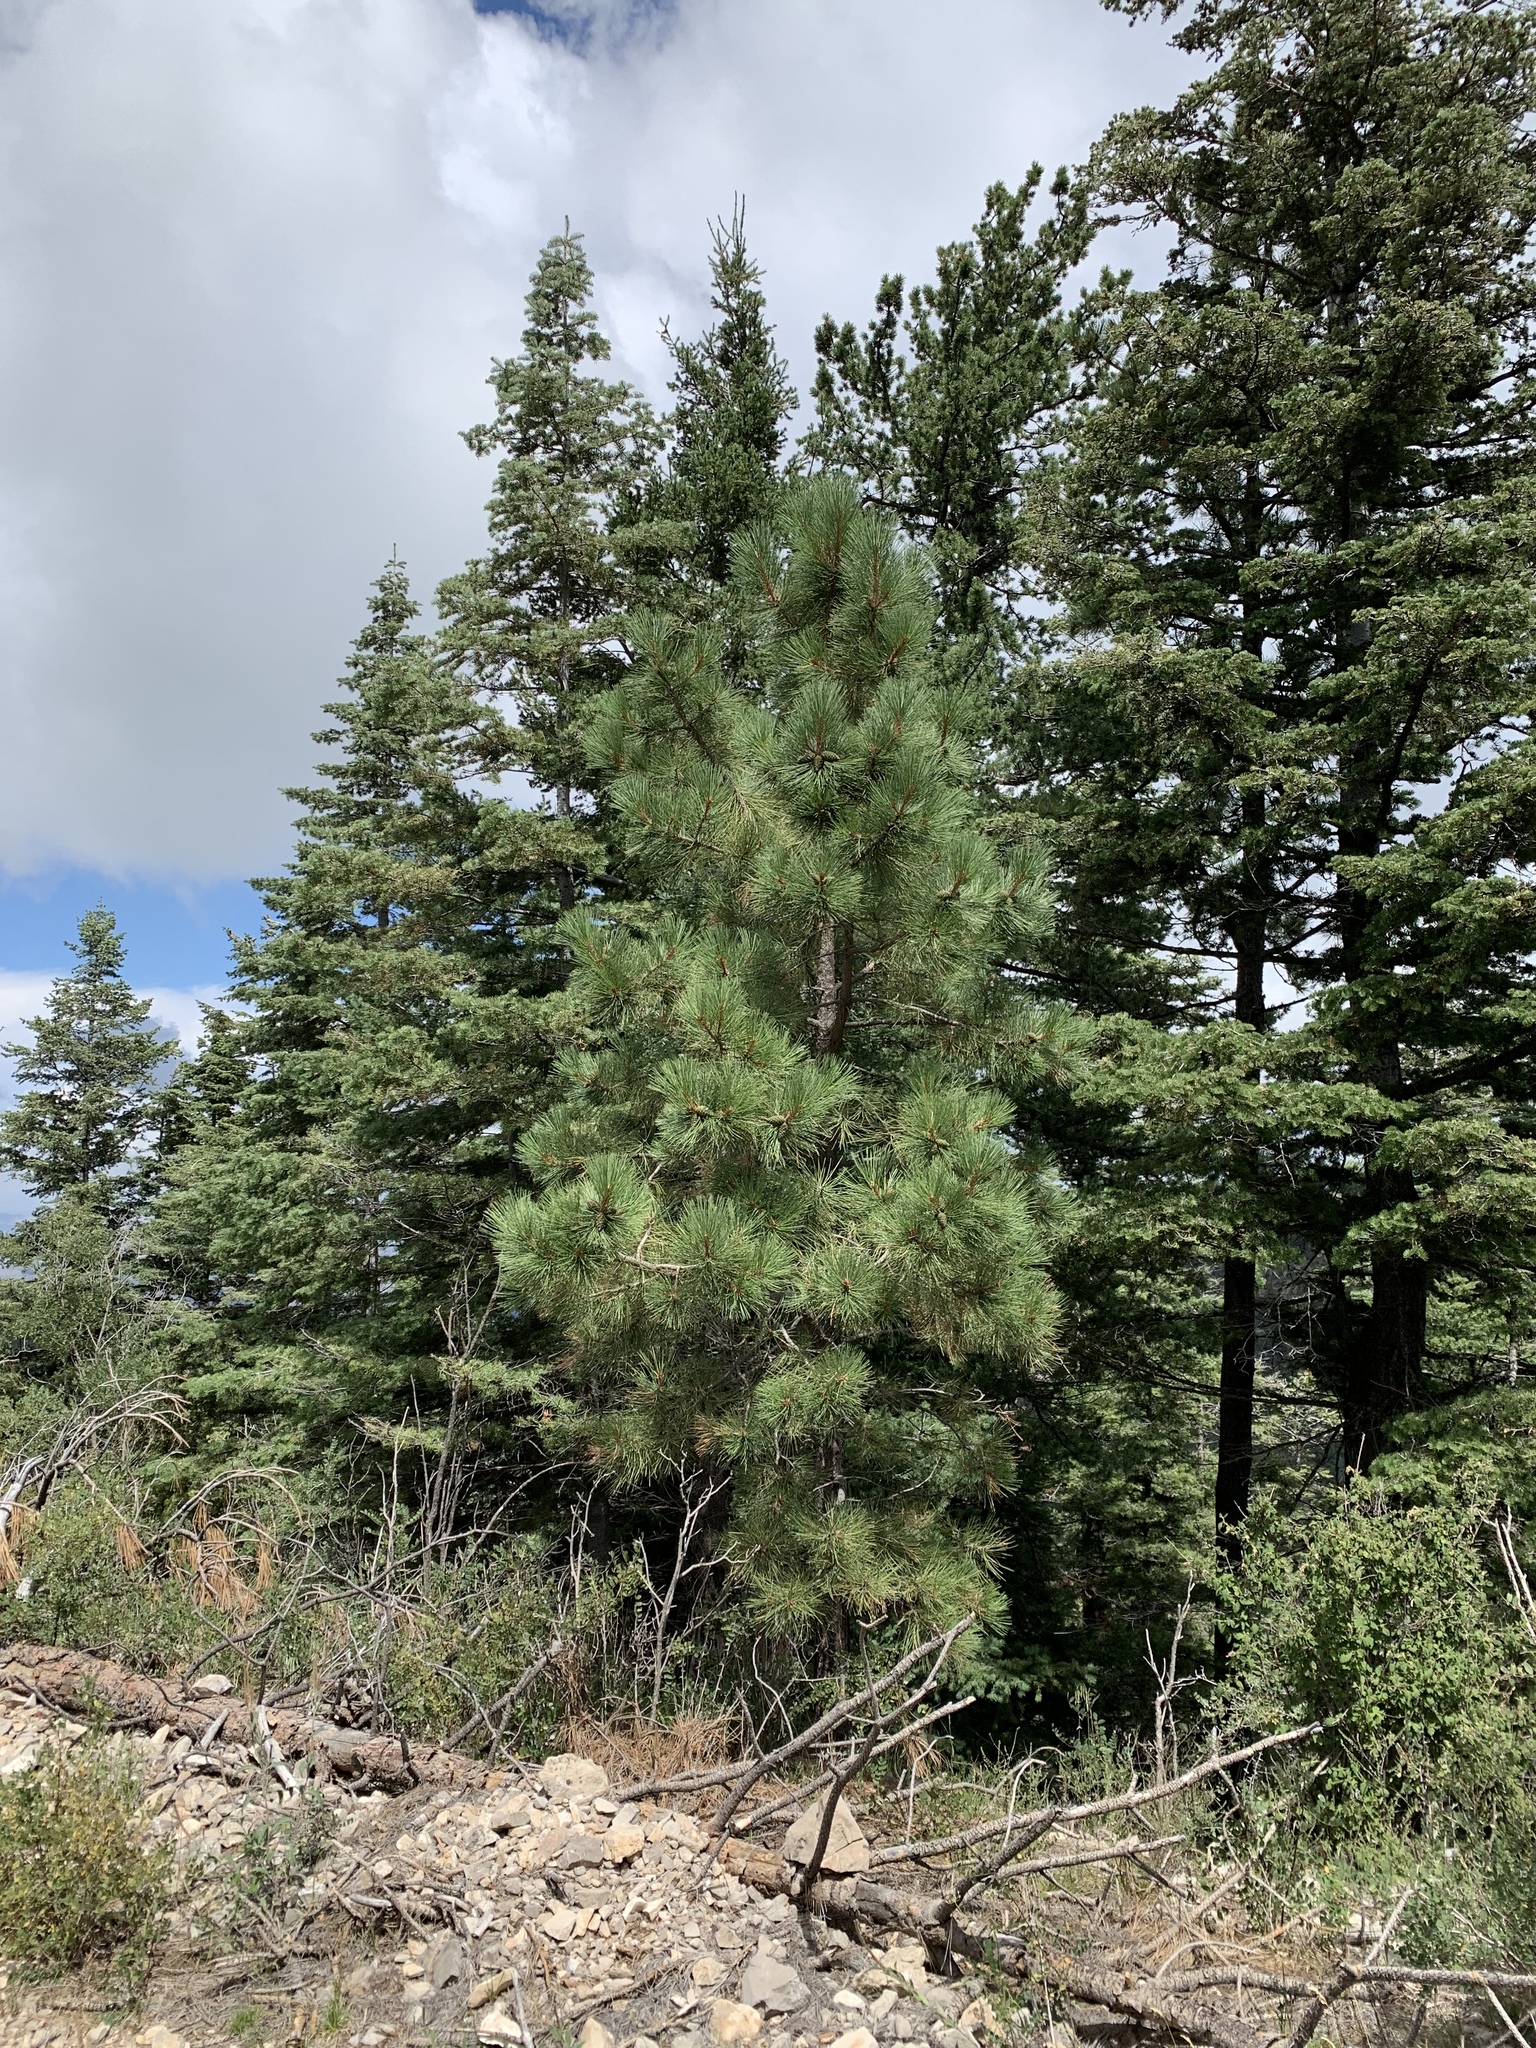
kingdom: Plantae
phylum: Tracheophyta
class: Pinopsida
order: Pinales
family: Pinaceae
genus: Pinus
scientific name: Pinus strobiformis
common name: Southwestern white pine
